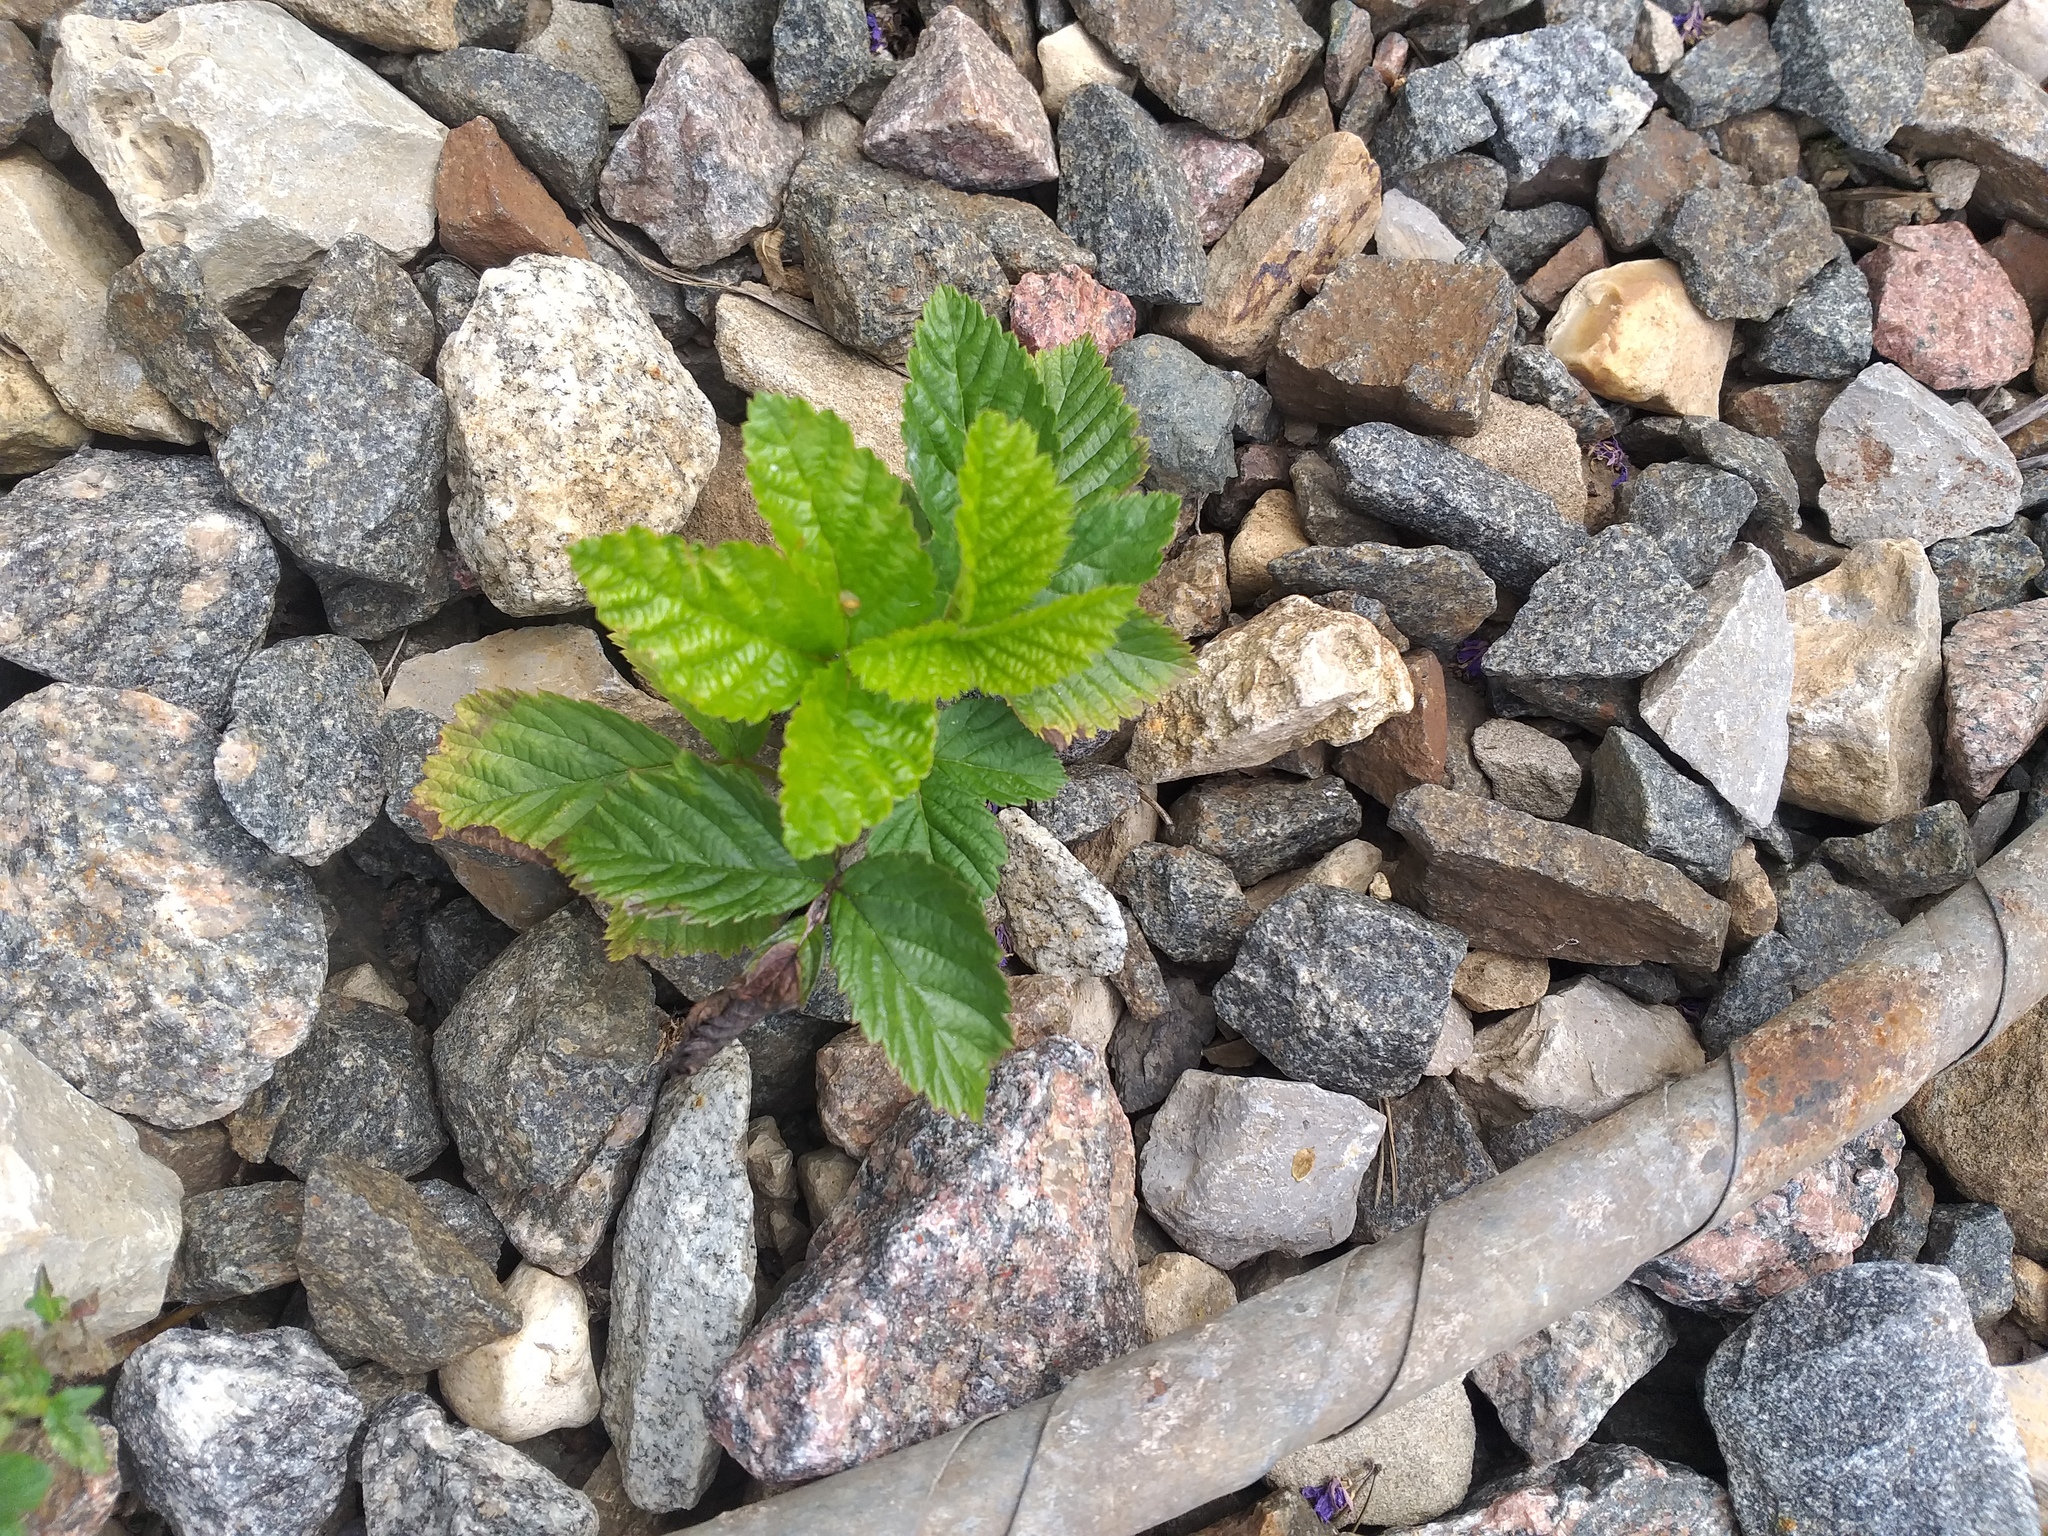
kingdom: Plantae
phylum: Tracheophyta
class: Magnoliopsida
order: Rosales
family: Rosaceae
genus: Rubus
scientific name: Rubus saxatilis
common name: Stone bramble
